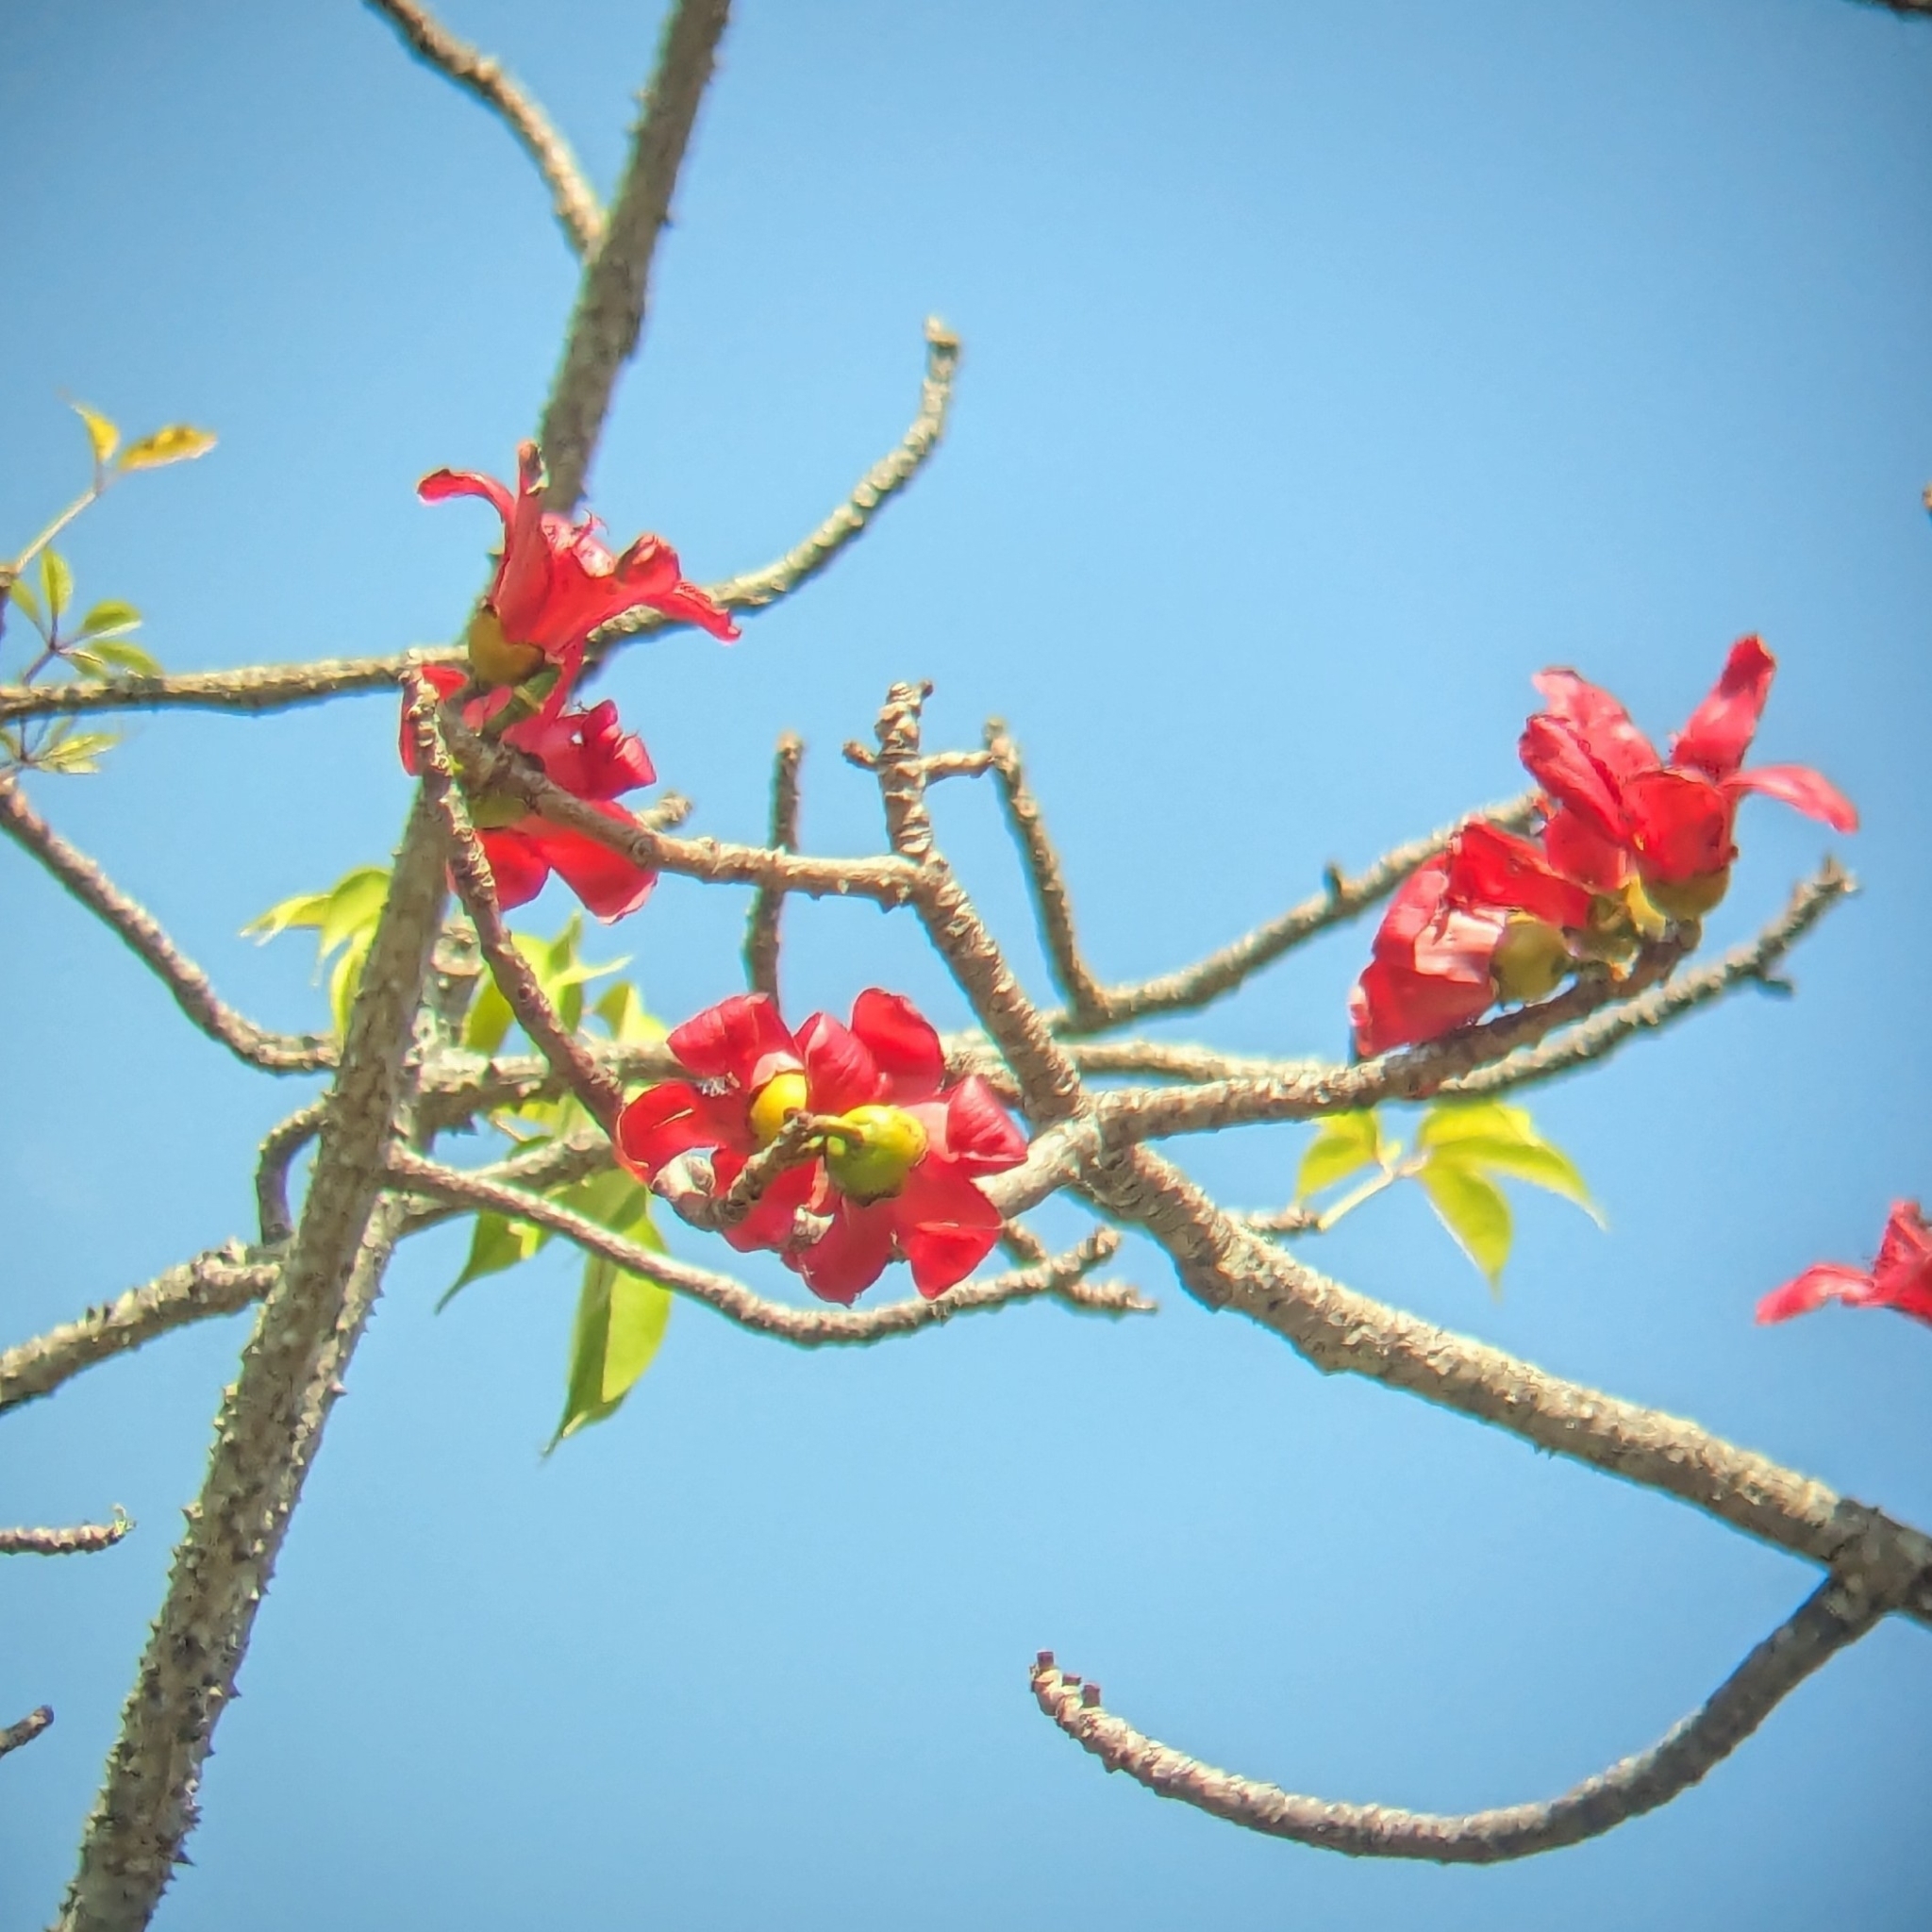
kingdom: Plantae
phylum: Tracheophyta
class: Magnoliopsida
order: Malvales
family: Malvaceae
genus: Bombax
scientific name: Bombax ceiba
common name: Northern-cottonwood
